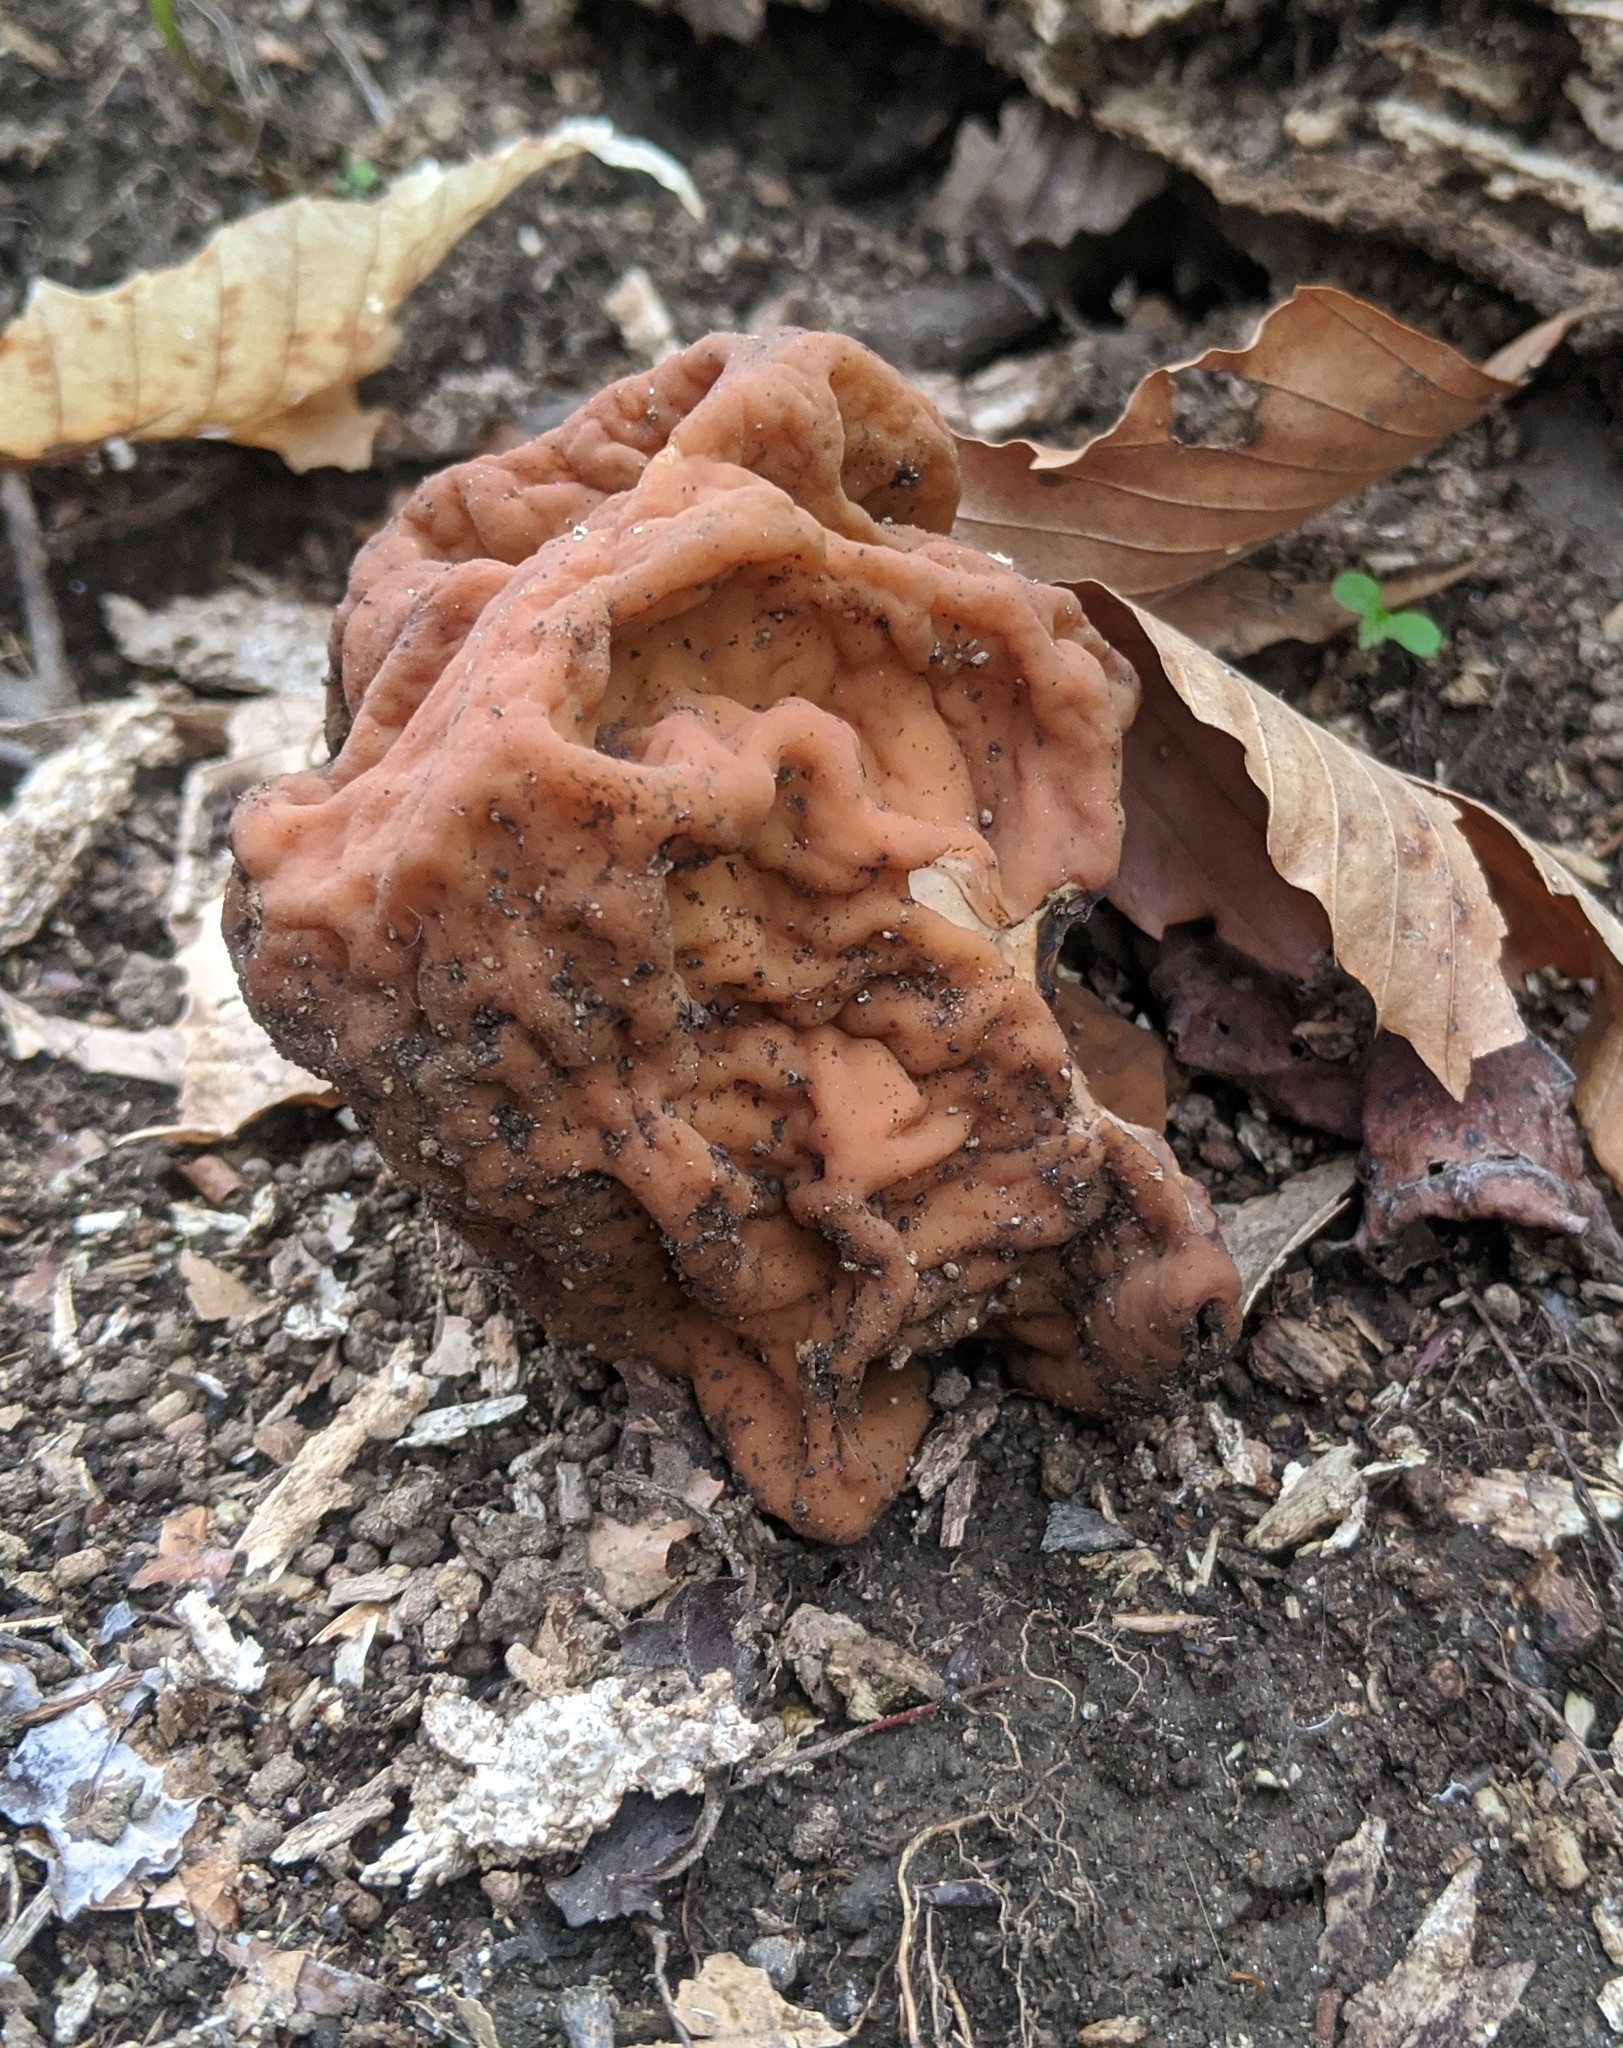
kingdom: Fungi
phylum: Ascomycota
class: Pezizomycetes
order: Pezizales
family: Discinaceae
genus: Gyromitra
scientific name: Gyromitra korfii
